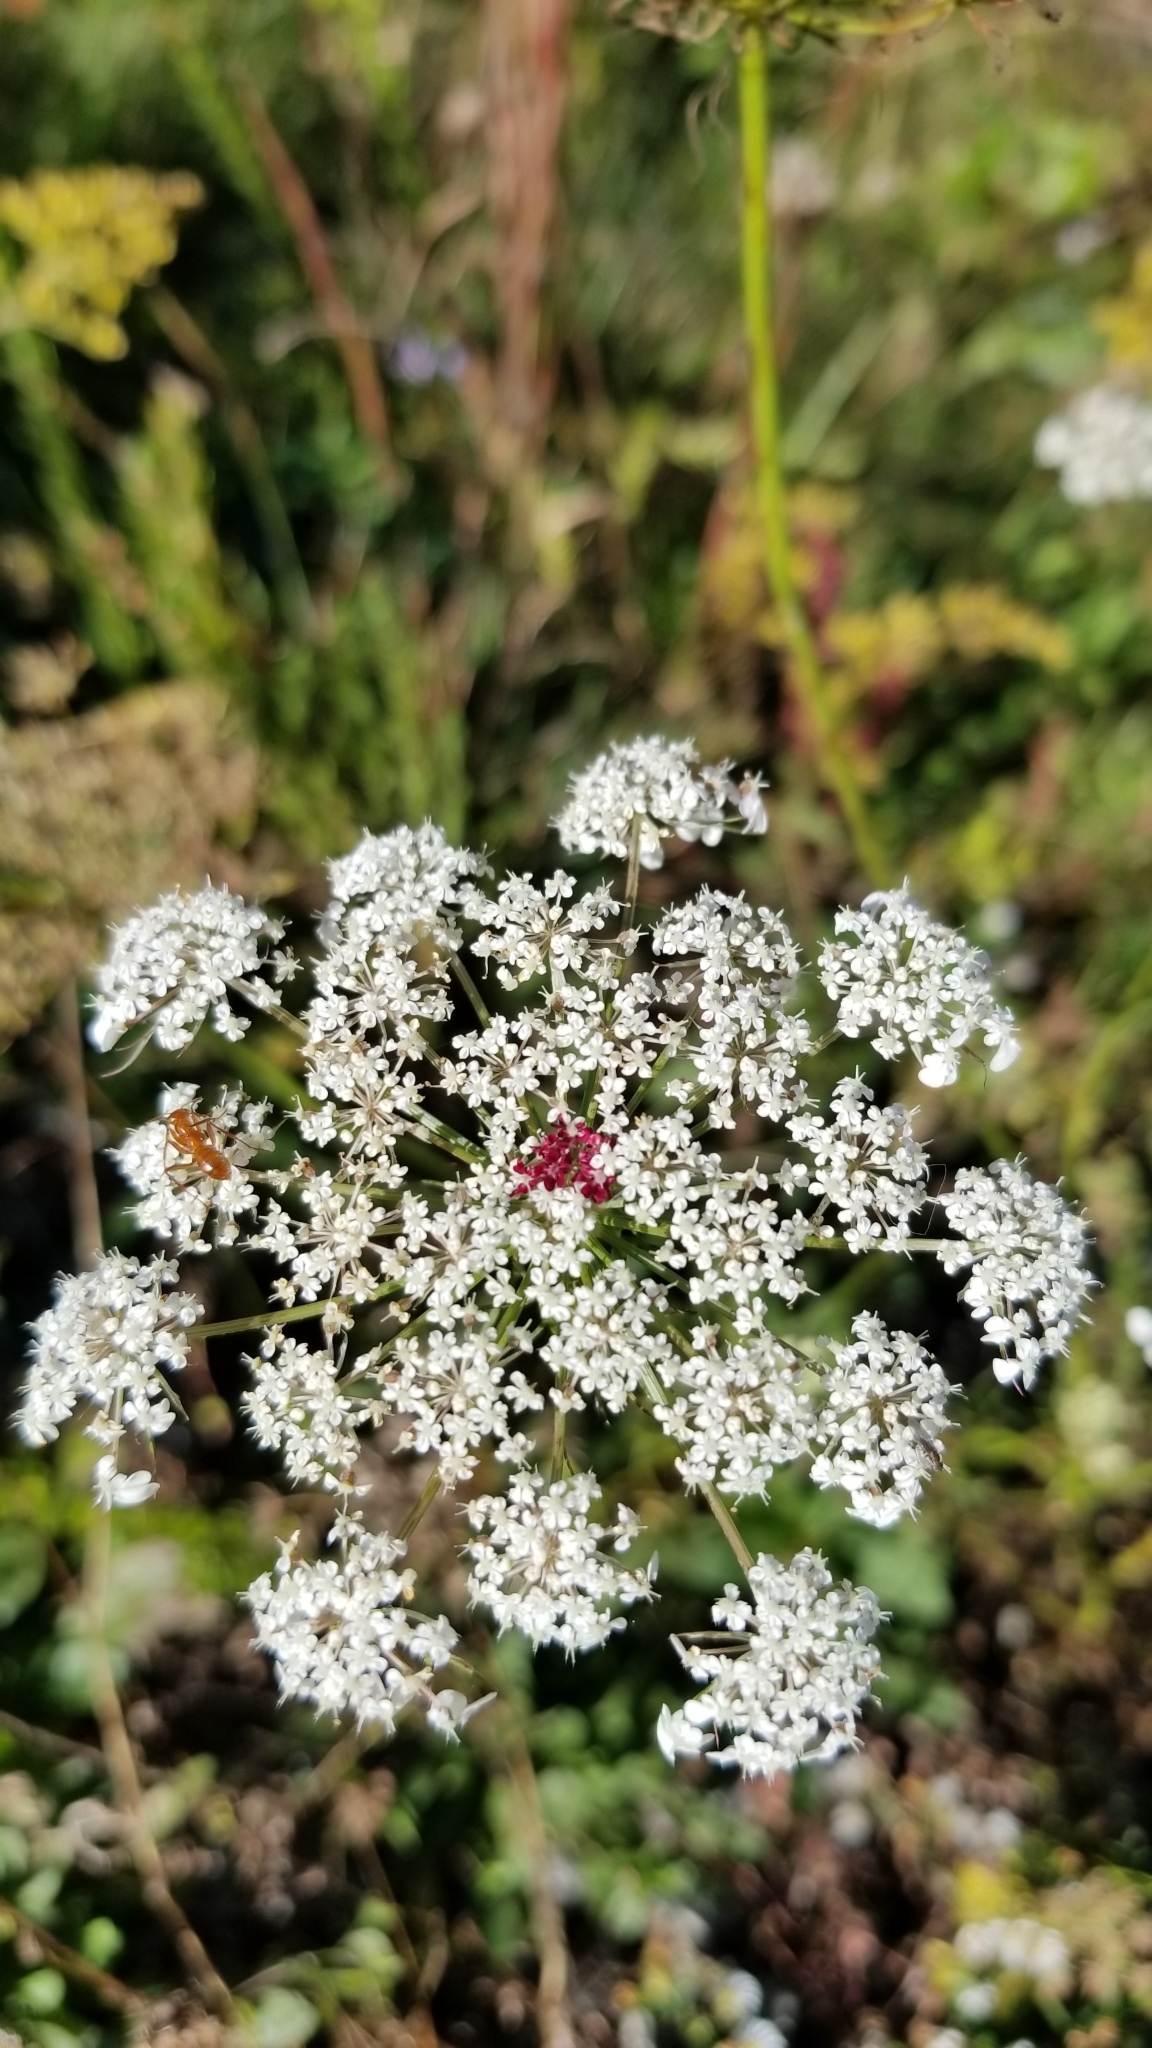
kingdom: Plantae
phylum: Tracheophyta
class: Magnoliopsida
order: Apiales
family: Apiaceae
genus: Daucus
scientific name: Daucus carota
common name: Wild carrot
